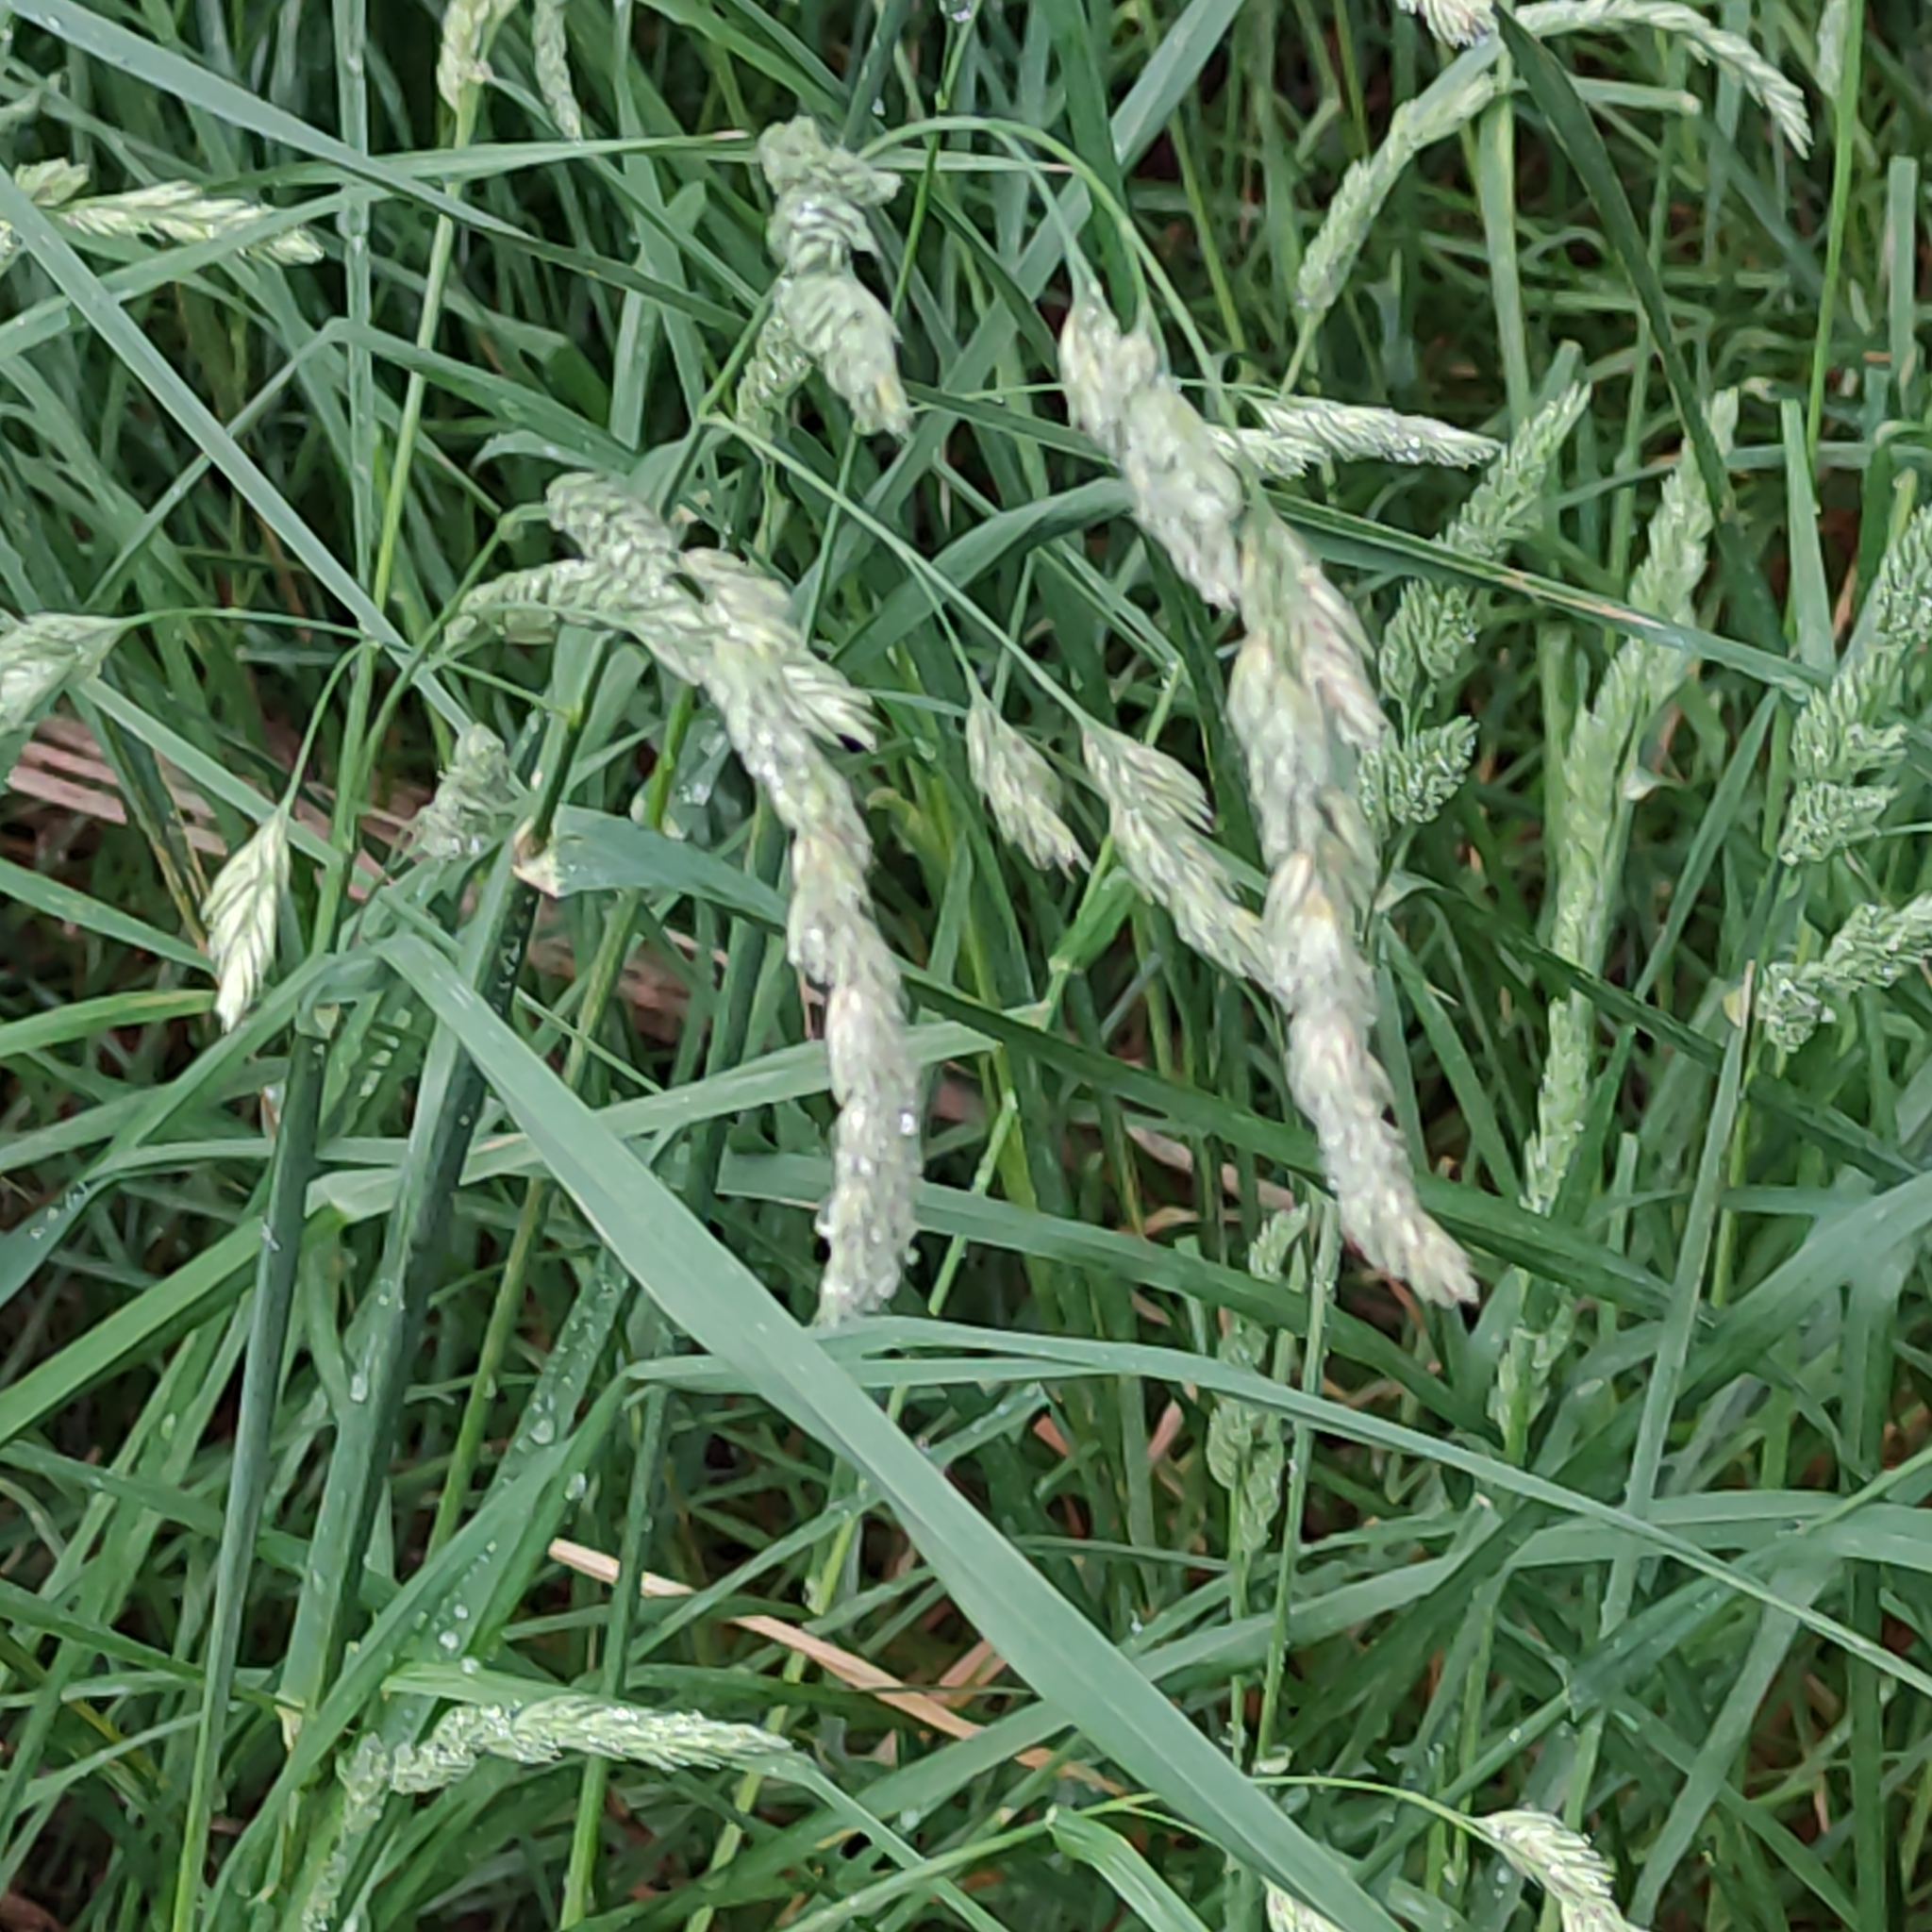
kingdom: Plantae
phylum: Tracheophyta
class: Liliopsida
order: Poales
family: Poaceae
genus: Dactylis
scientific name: Dactylis glomerata
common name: Orchardgrass
